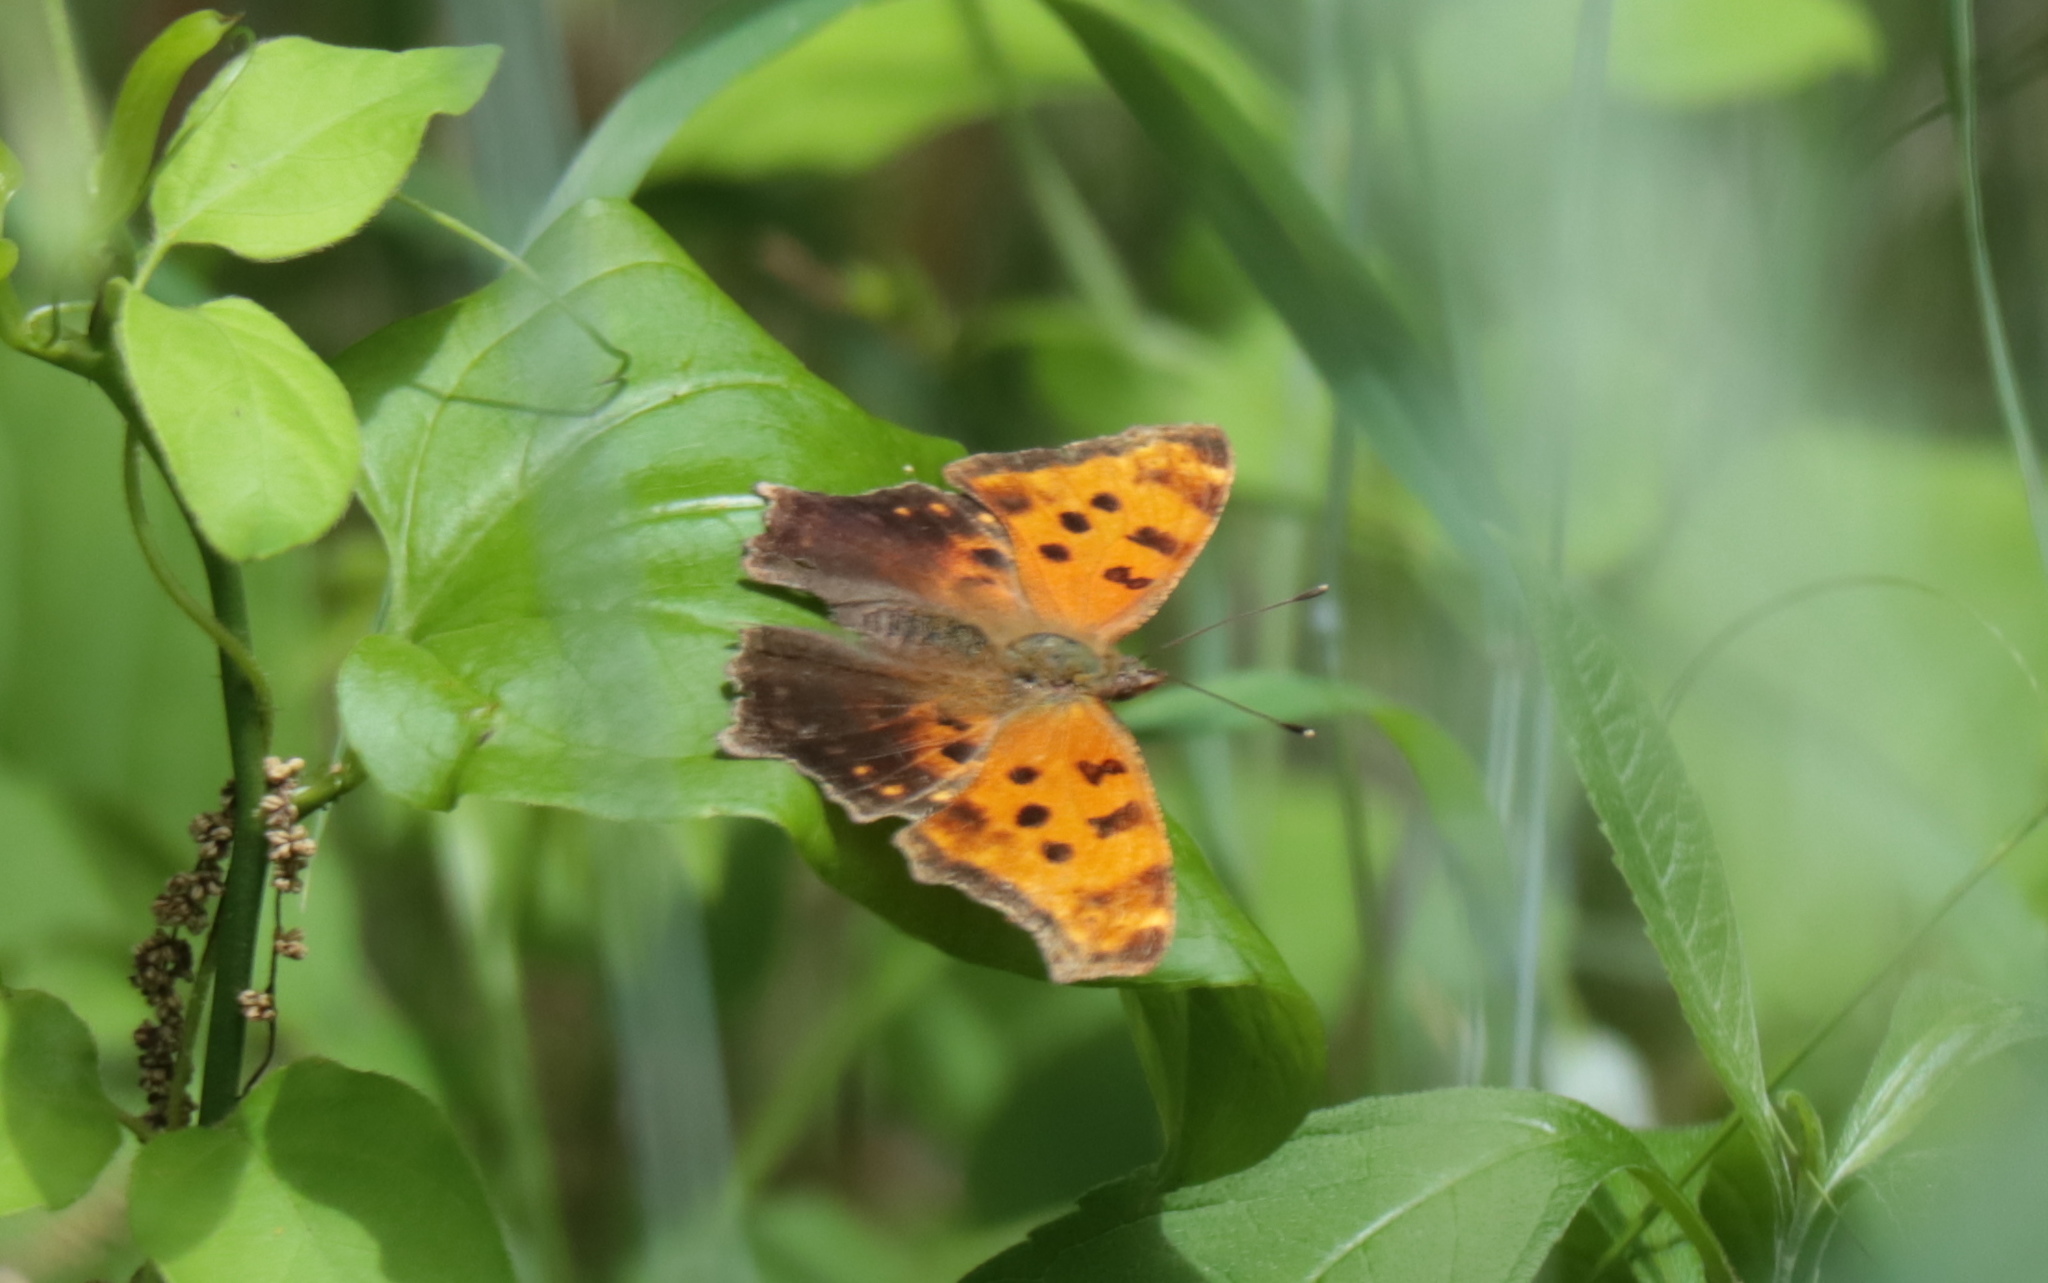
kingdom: Animalia
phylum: Arthropoda
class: Insecta
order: Lepidoptera
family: Nymphalidae
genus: Polygonia
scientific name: Polygonia comma
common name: Eastern comma
